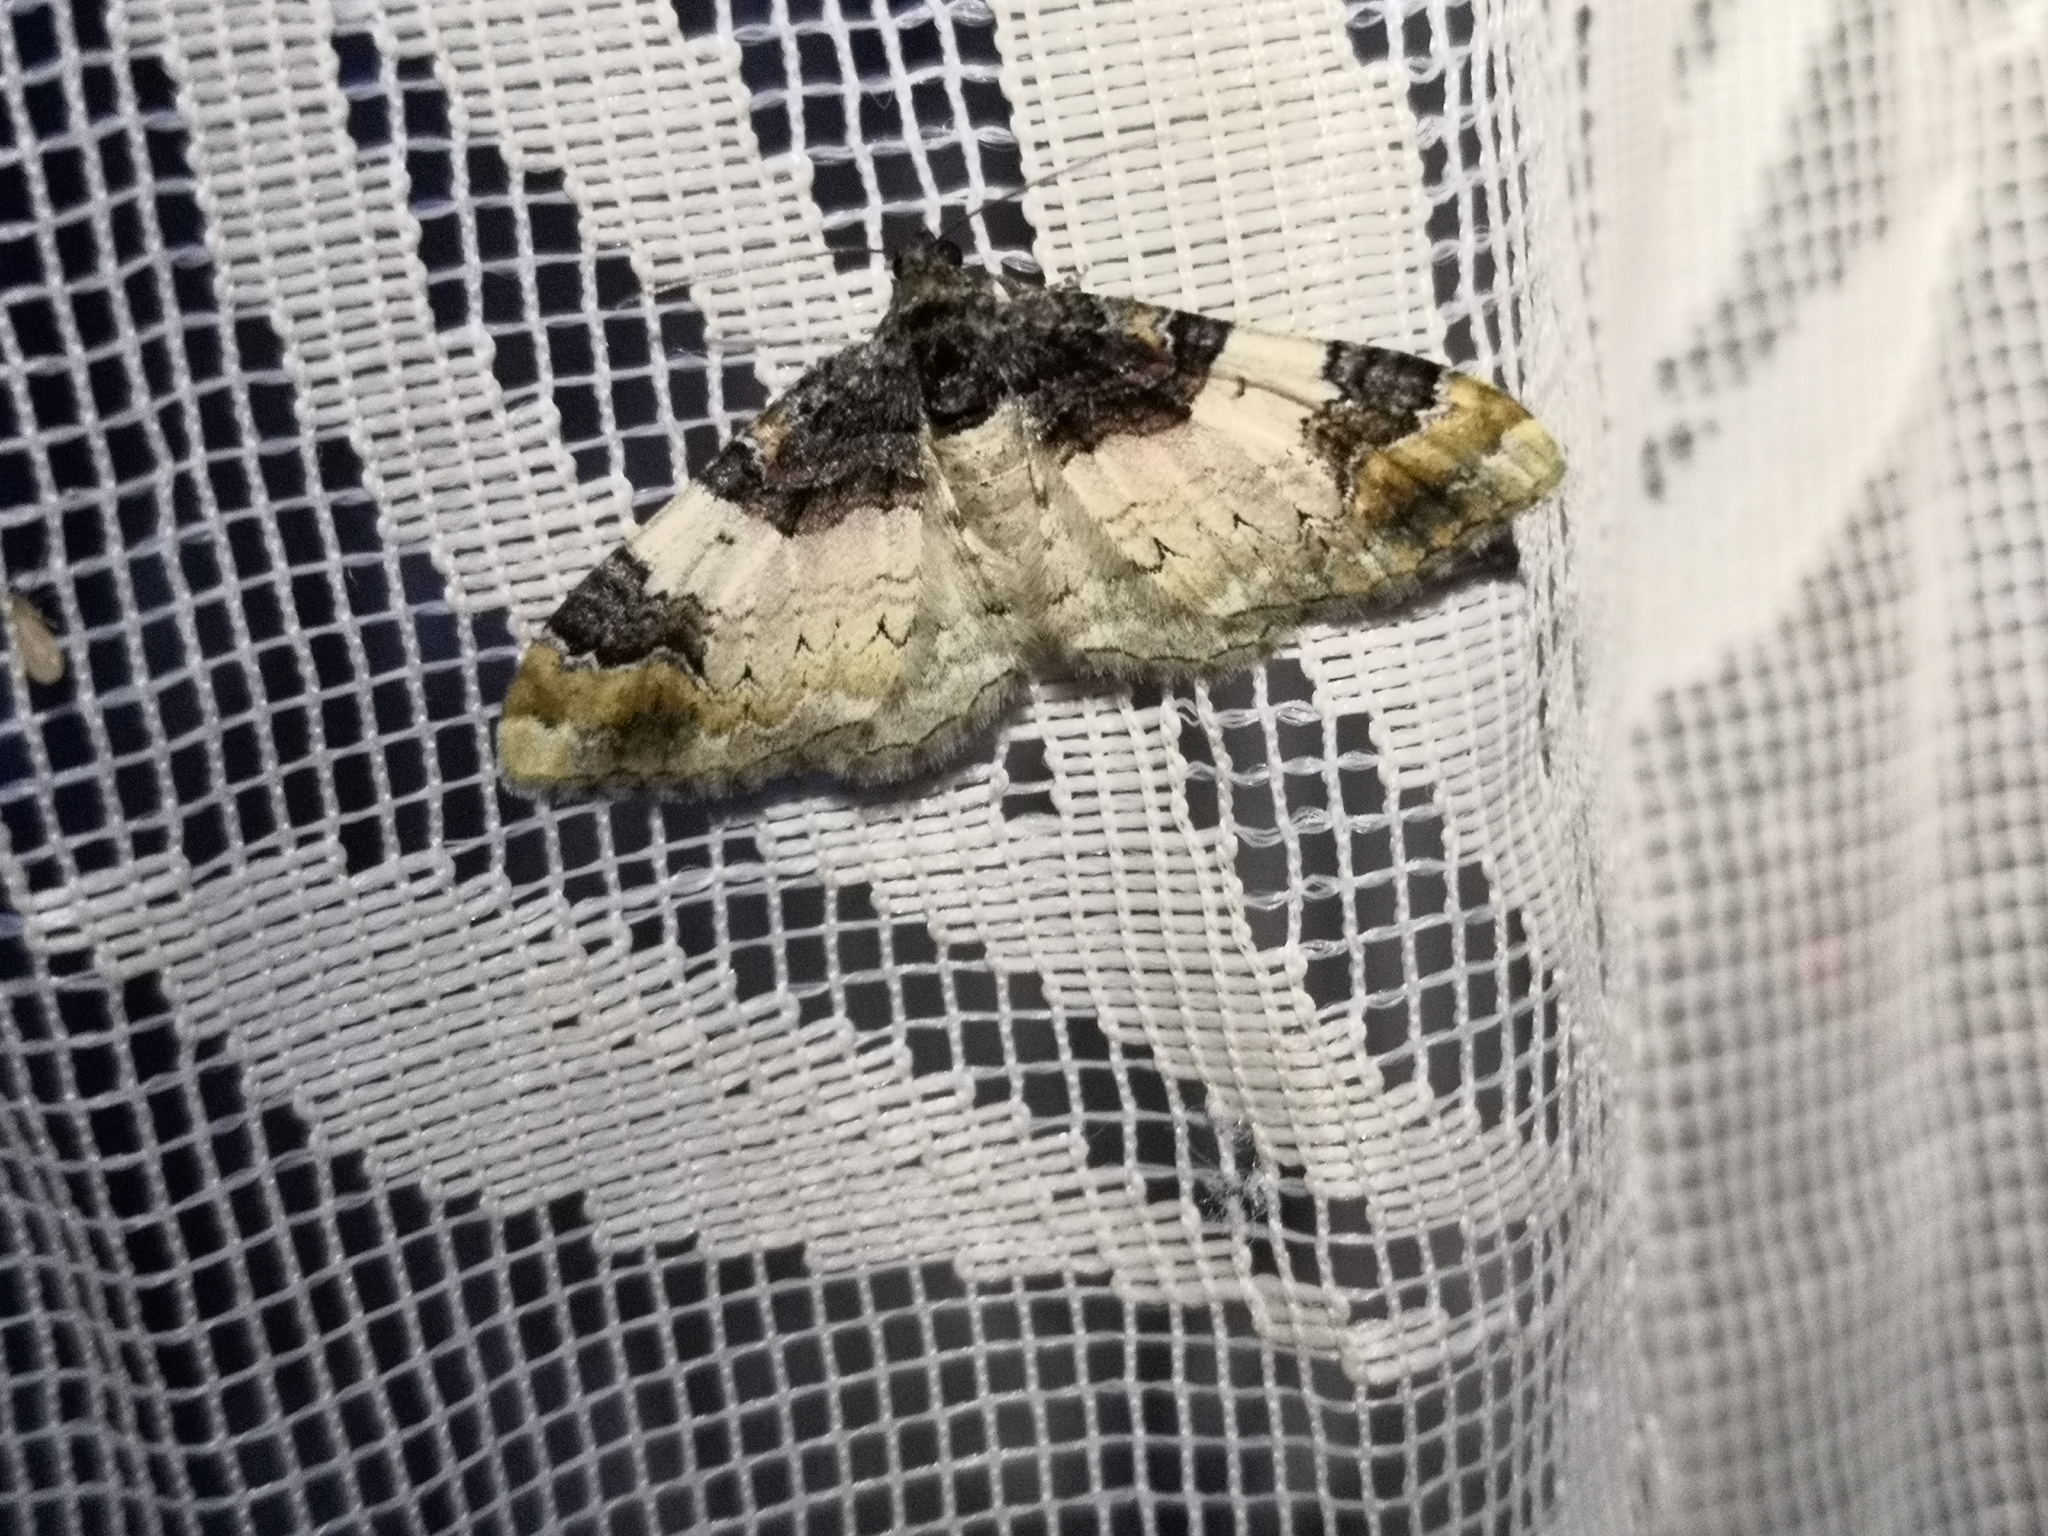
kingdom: Animalia
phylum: Arthropoda
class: Insecta
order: Lepidoptera
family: Geometridae
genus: Catarhoe
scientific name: Catarhoe cuculata
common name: Royal mantle
